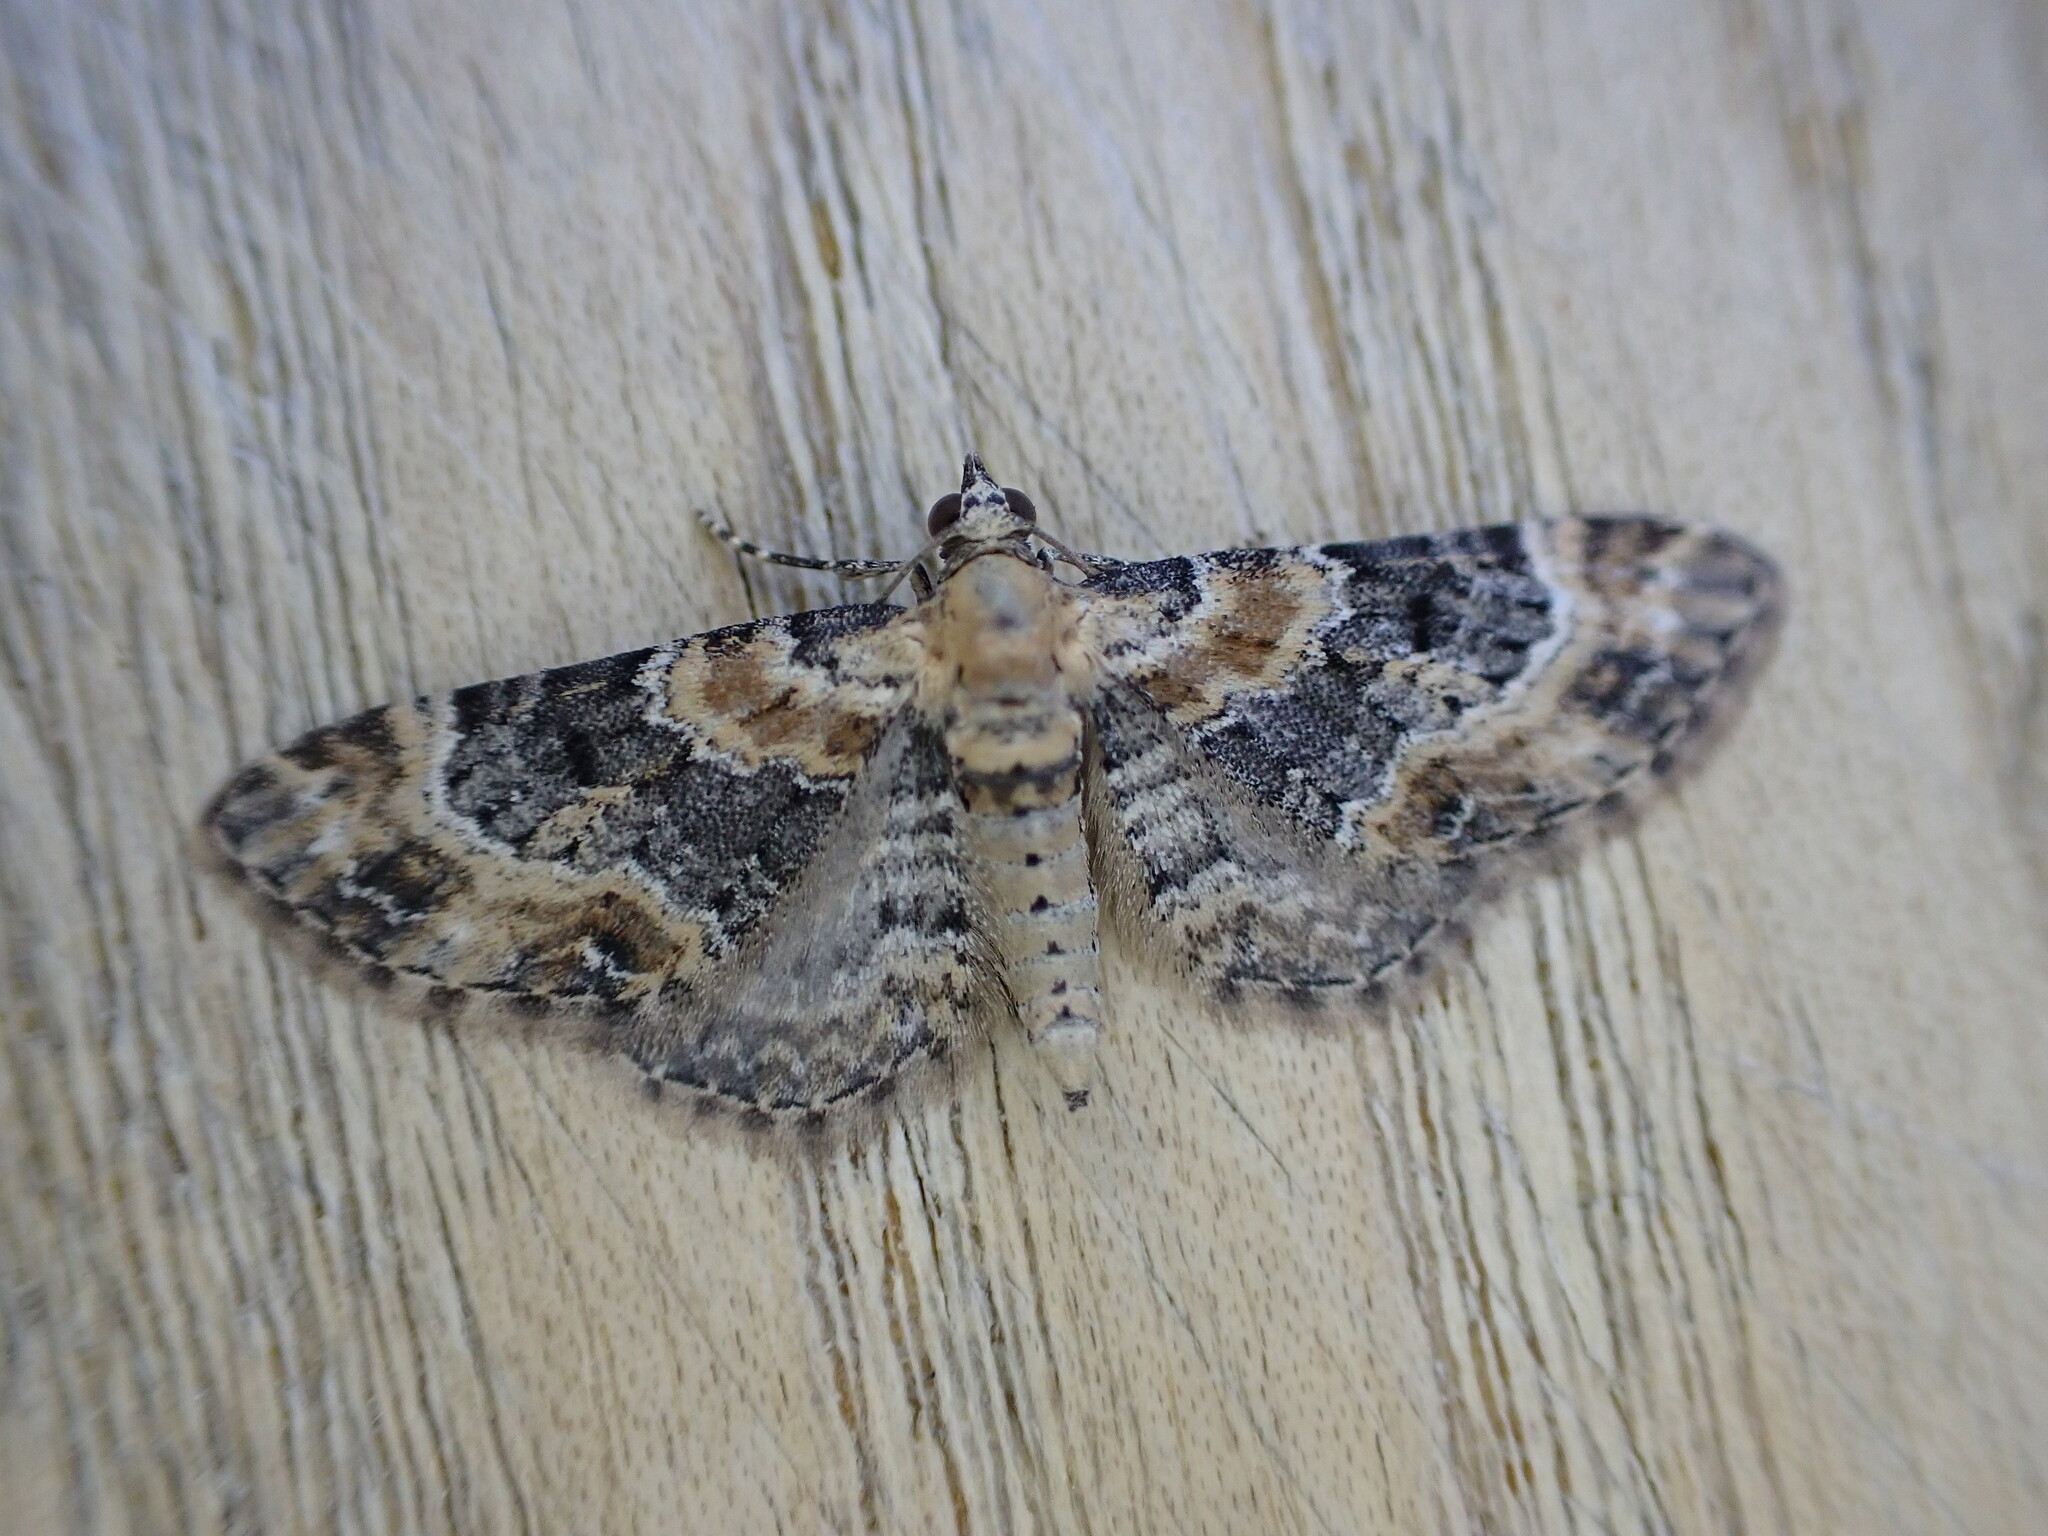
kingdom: Animalia
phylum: Arthropoda
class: Insecta
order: Lepidoptera
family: Geometridae
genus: Eupithecia
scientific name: Eupithecia pulchellata
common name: Foxglove pug
